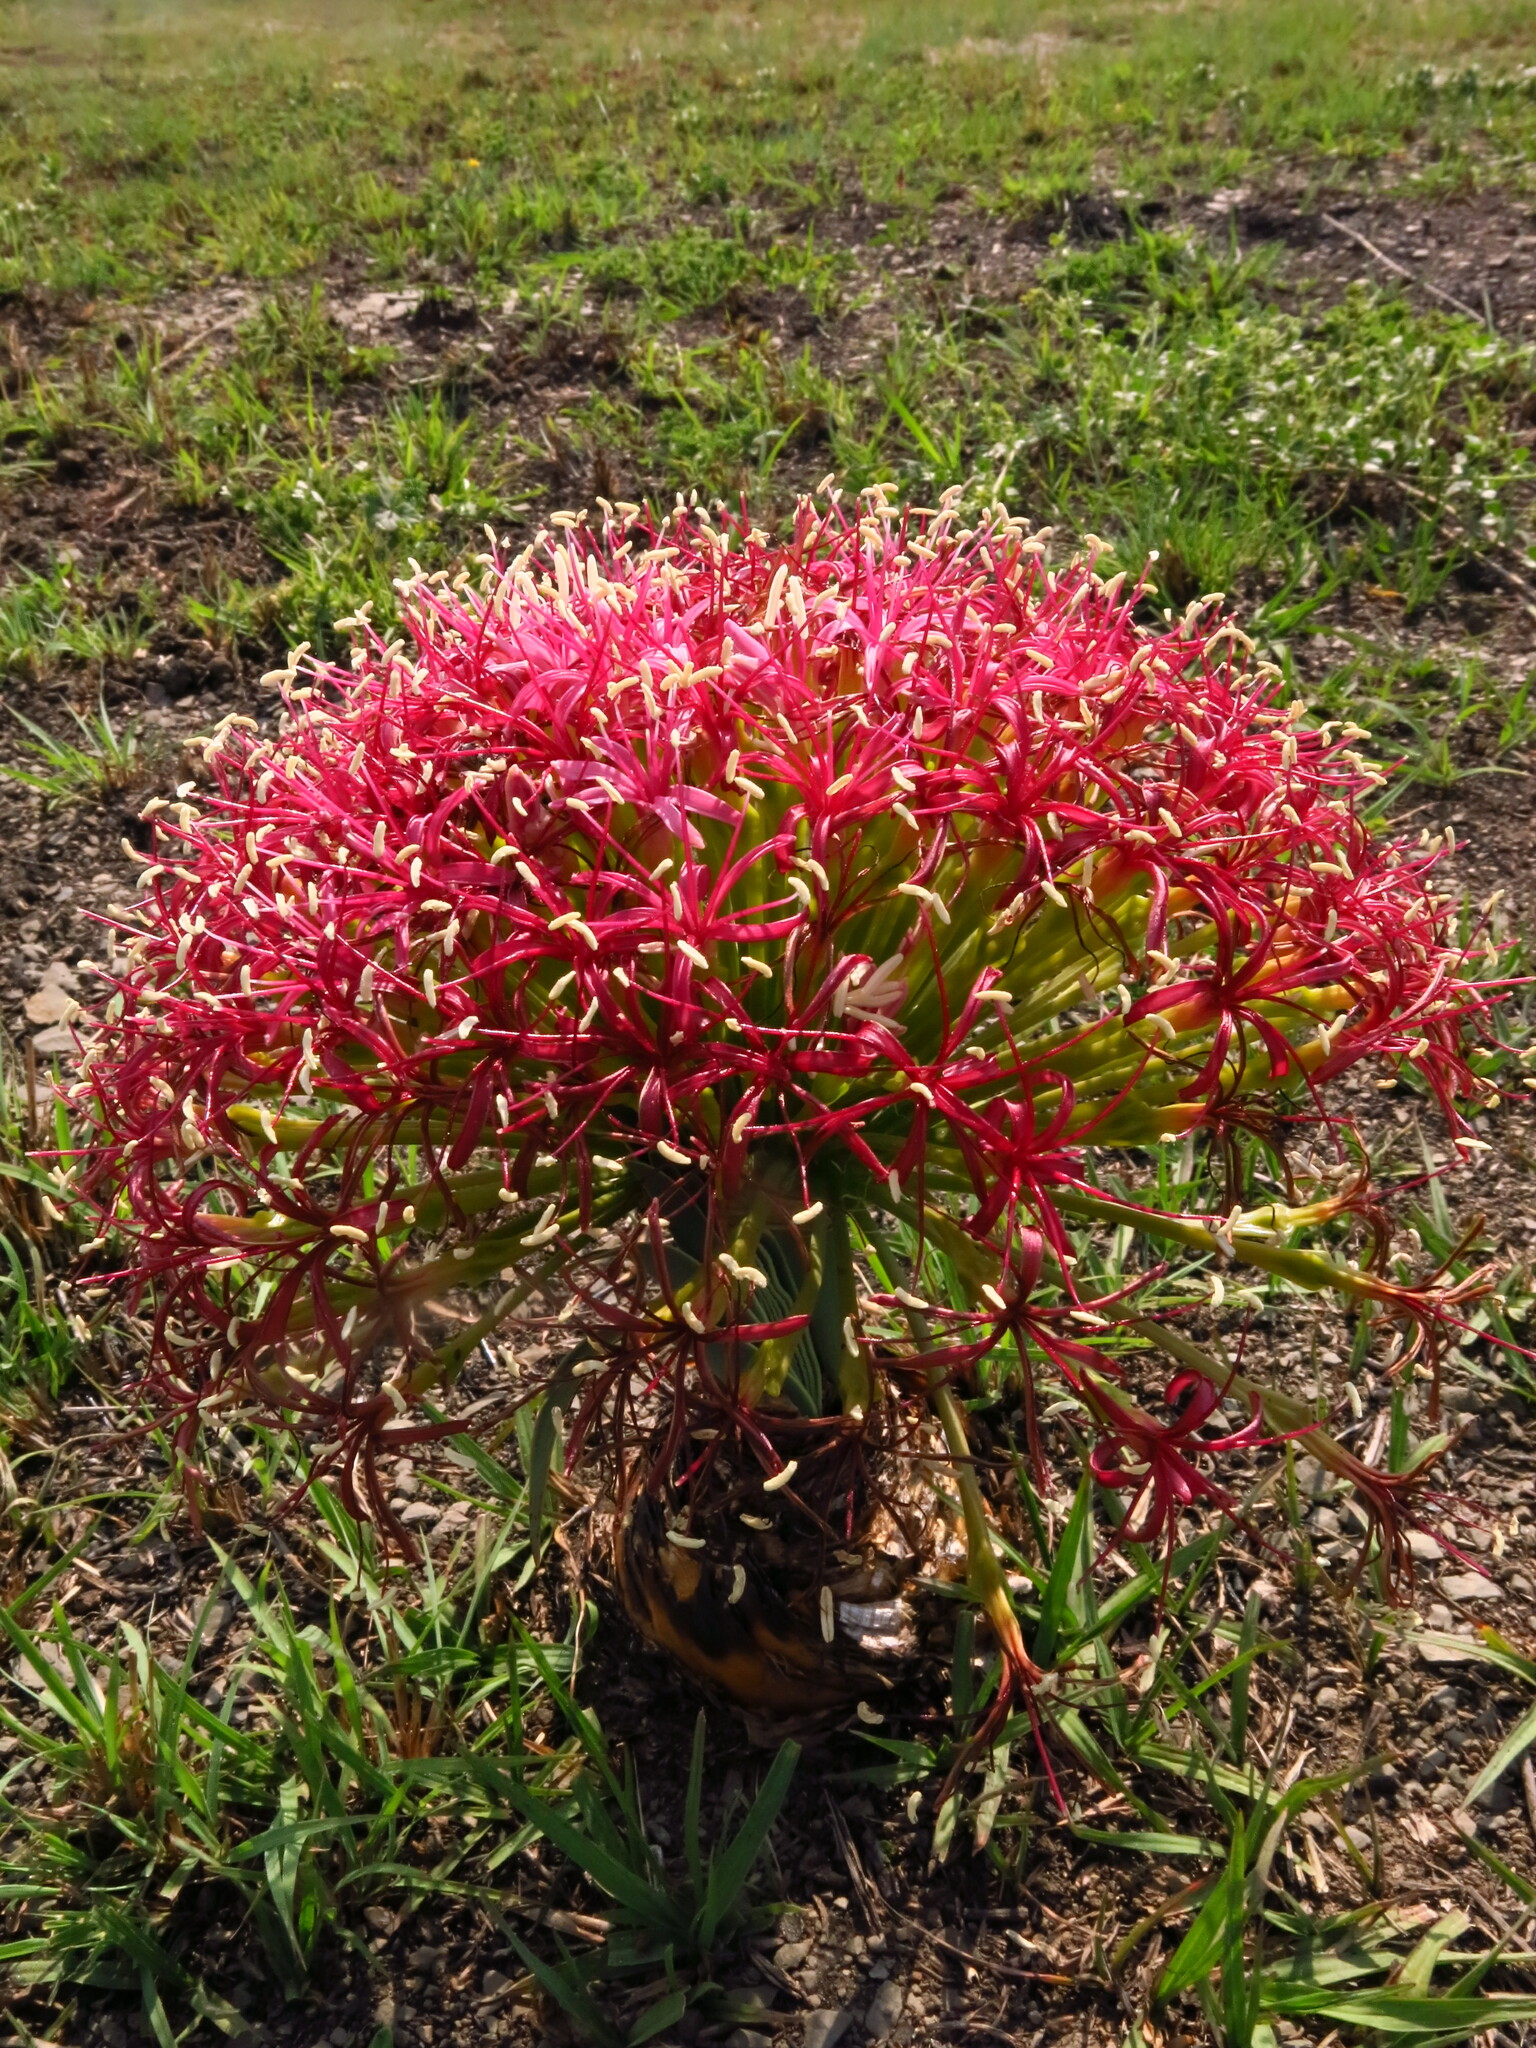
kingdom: Plantae
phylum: Tracheophyta
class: Liliopsida
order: Asparagales
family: Amaryllidaceae
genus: Boophone
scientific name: Boophone disticha
